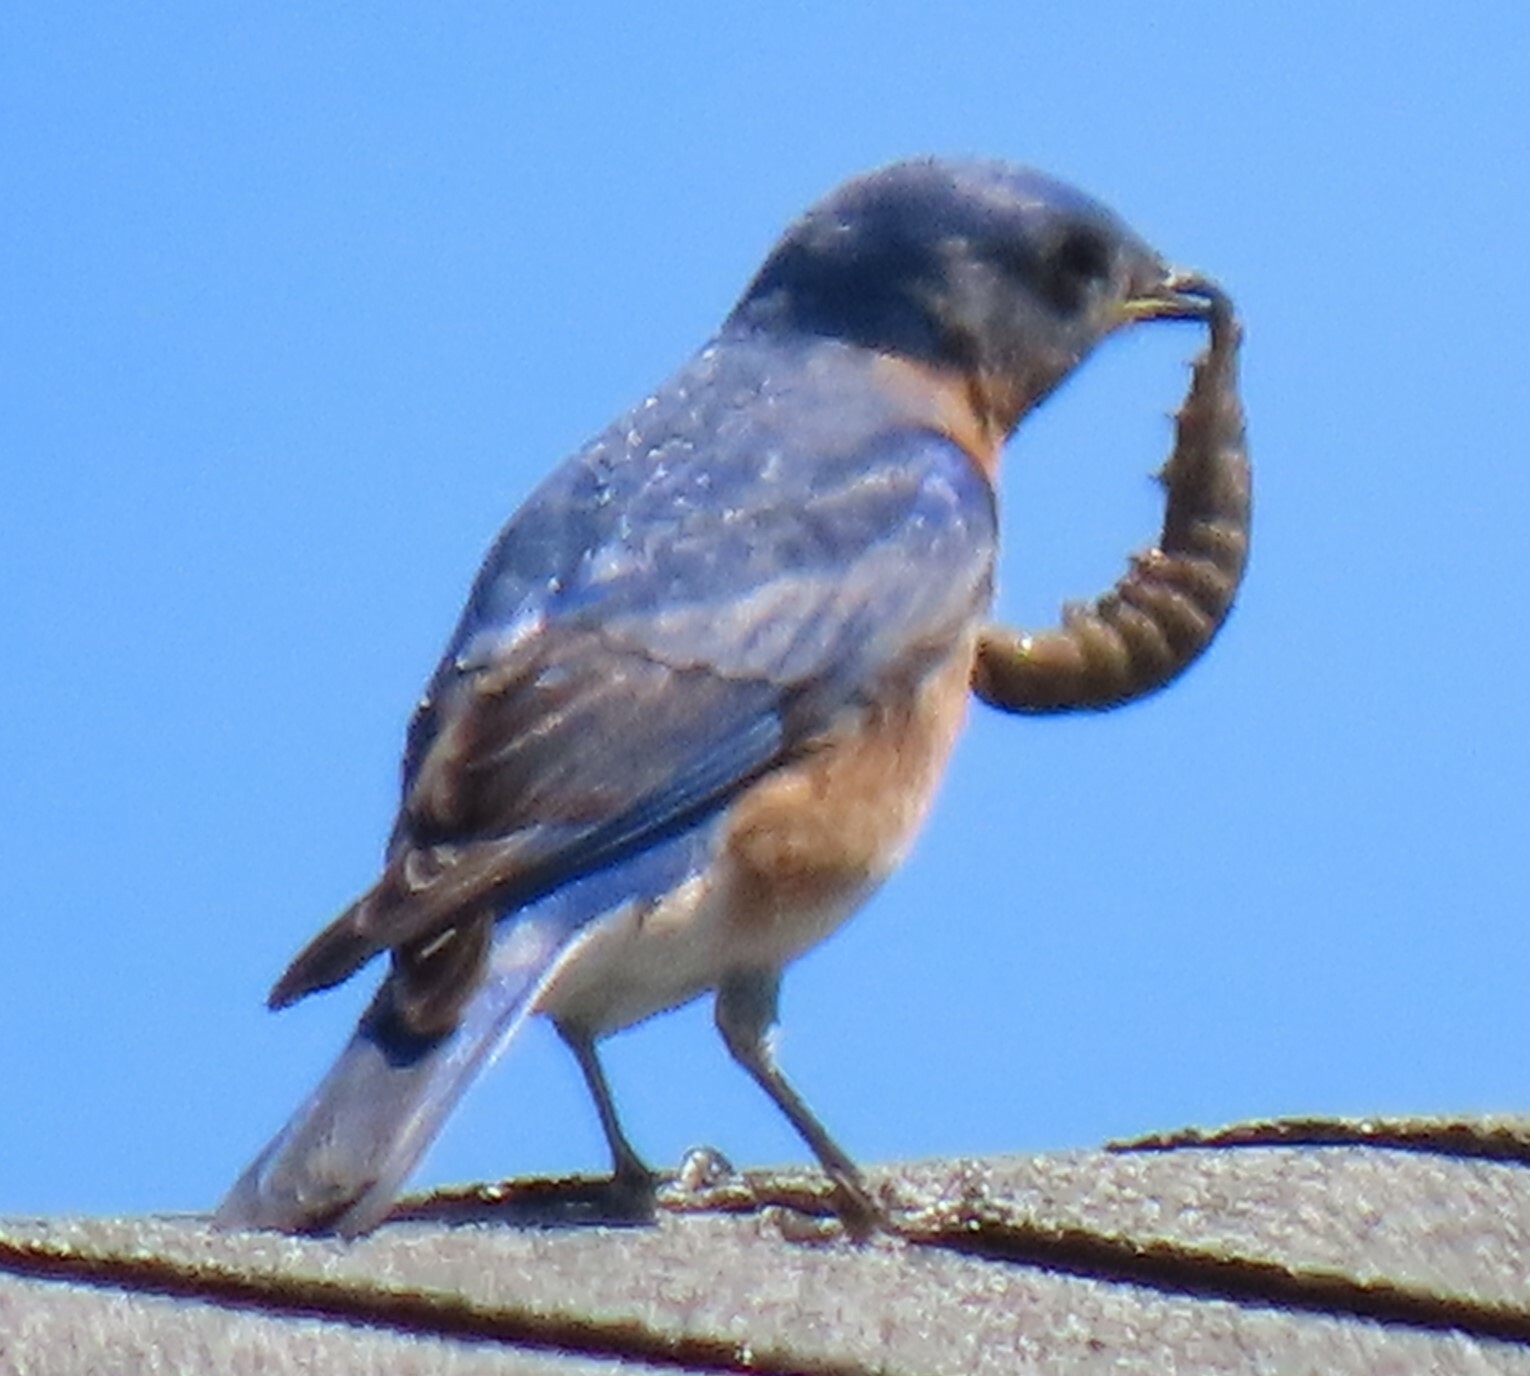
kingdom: Animalia
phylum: Chordata
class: Aves
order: Passeriformes
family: Turdidae
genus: Sialia
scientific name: Sialia sialis
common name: Eastern bluebird
